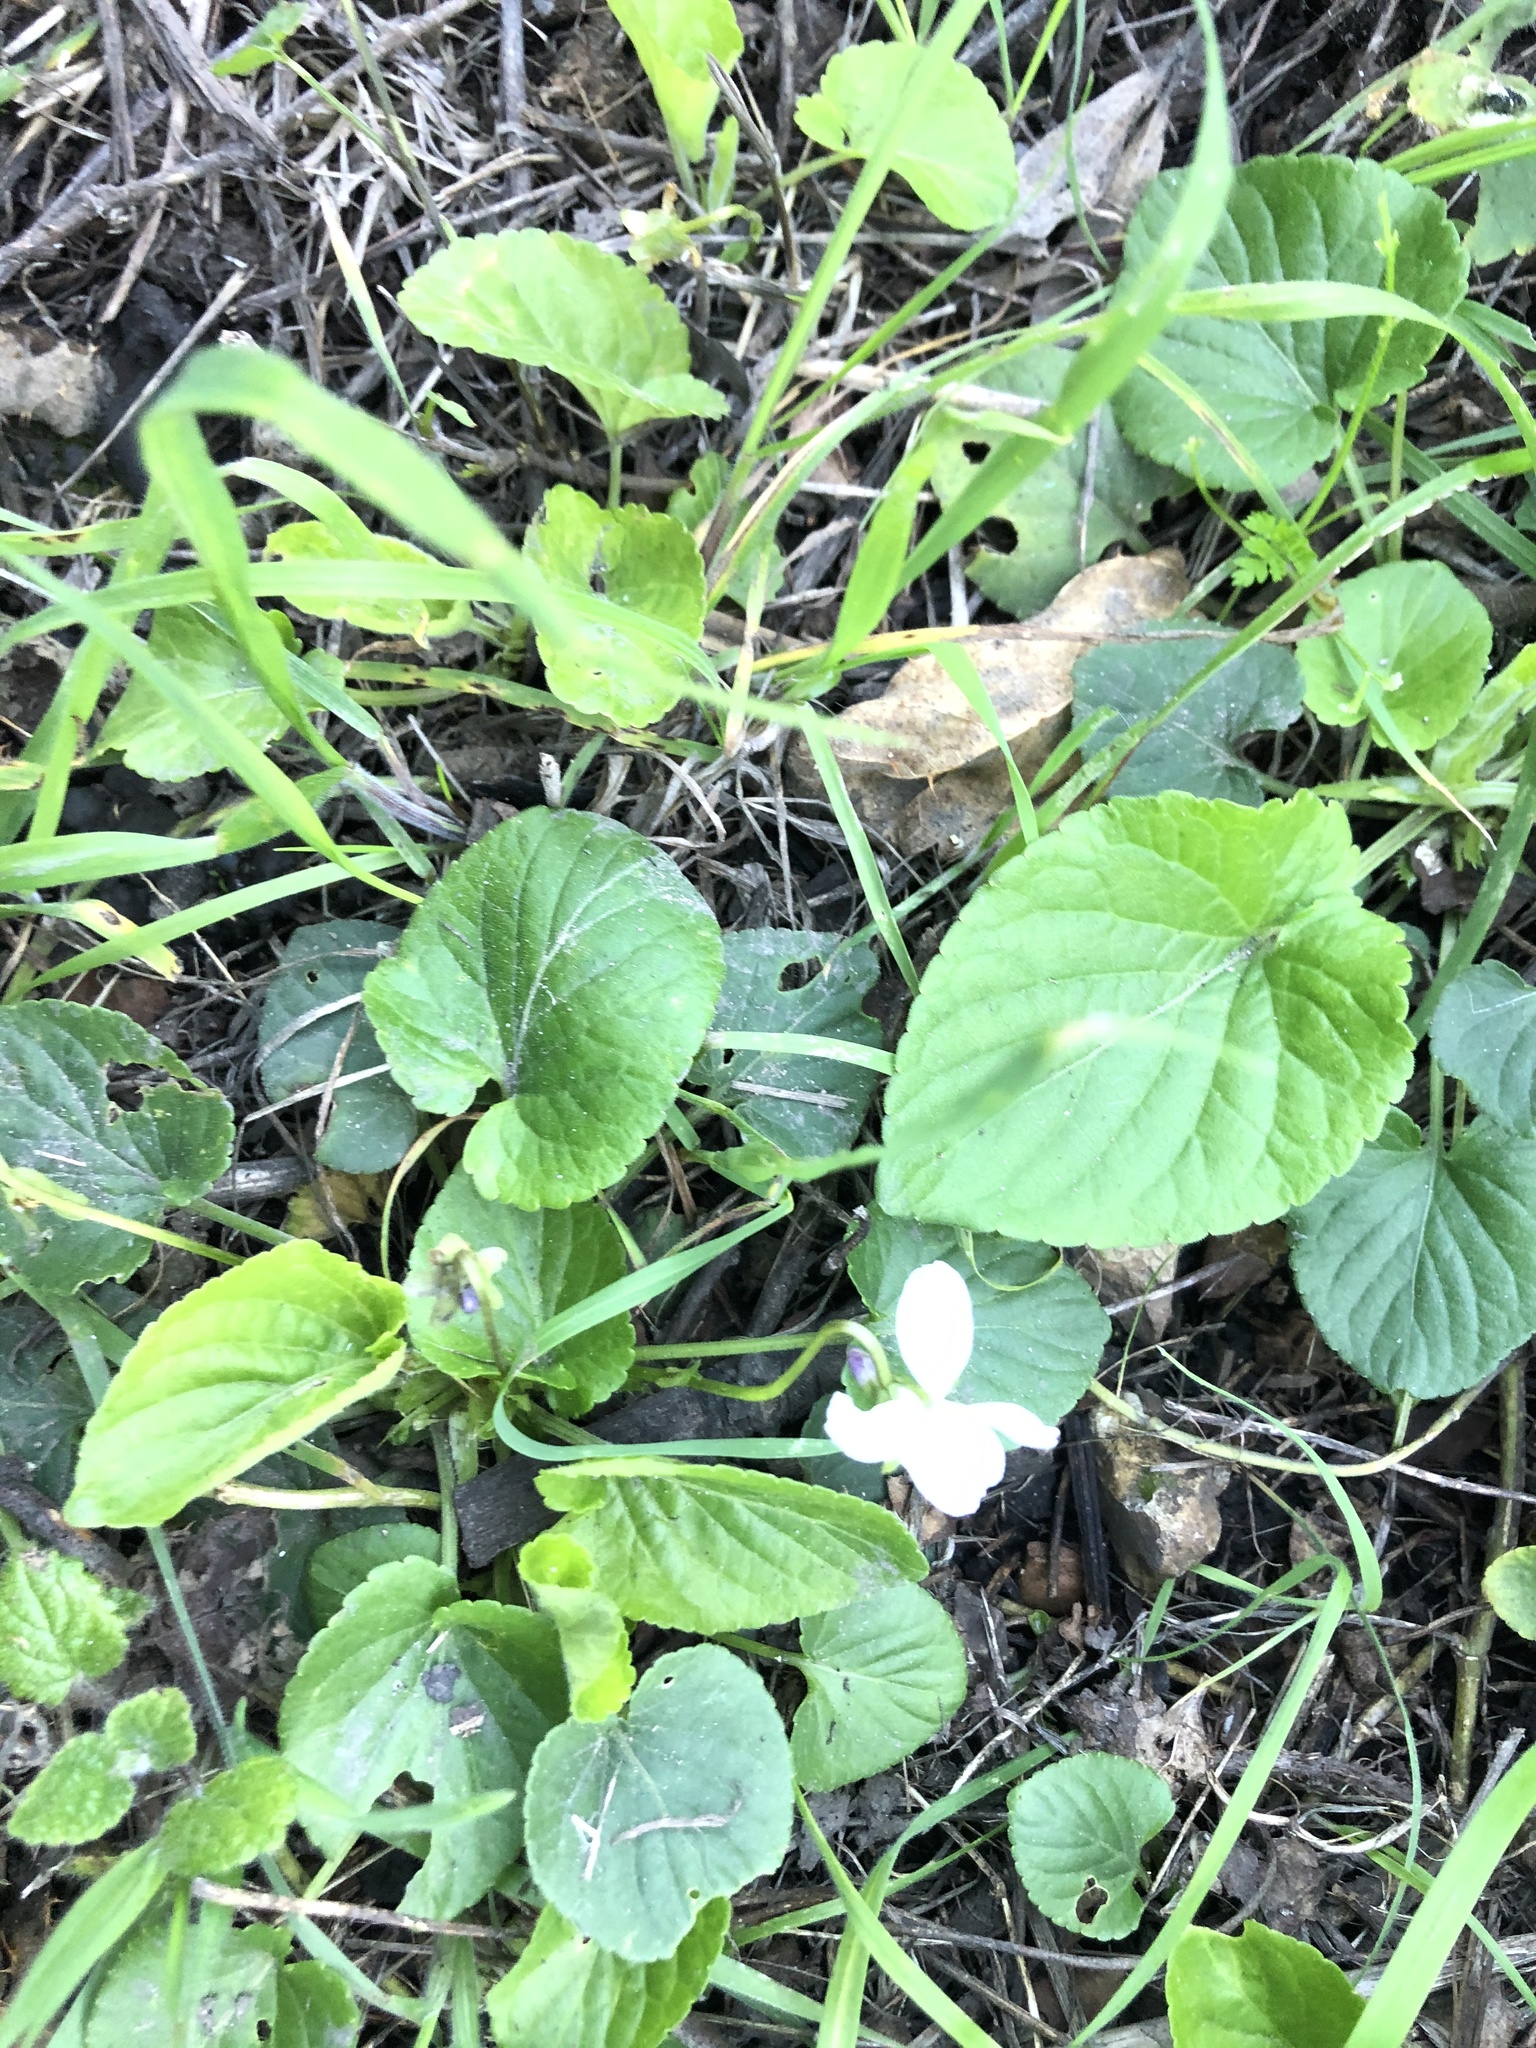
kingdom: Plantae
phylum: Tracheophyta
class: Magnoliopsida
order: Malpighiales
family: Violaceae
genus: Viola
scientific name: Viola odorata
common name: Sweet violet
